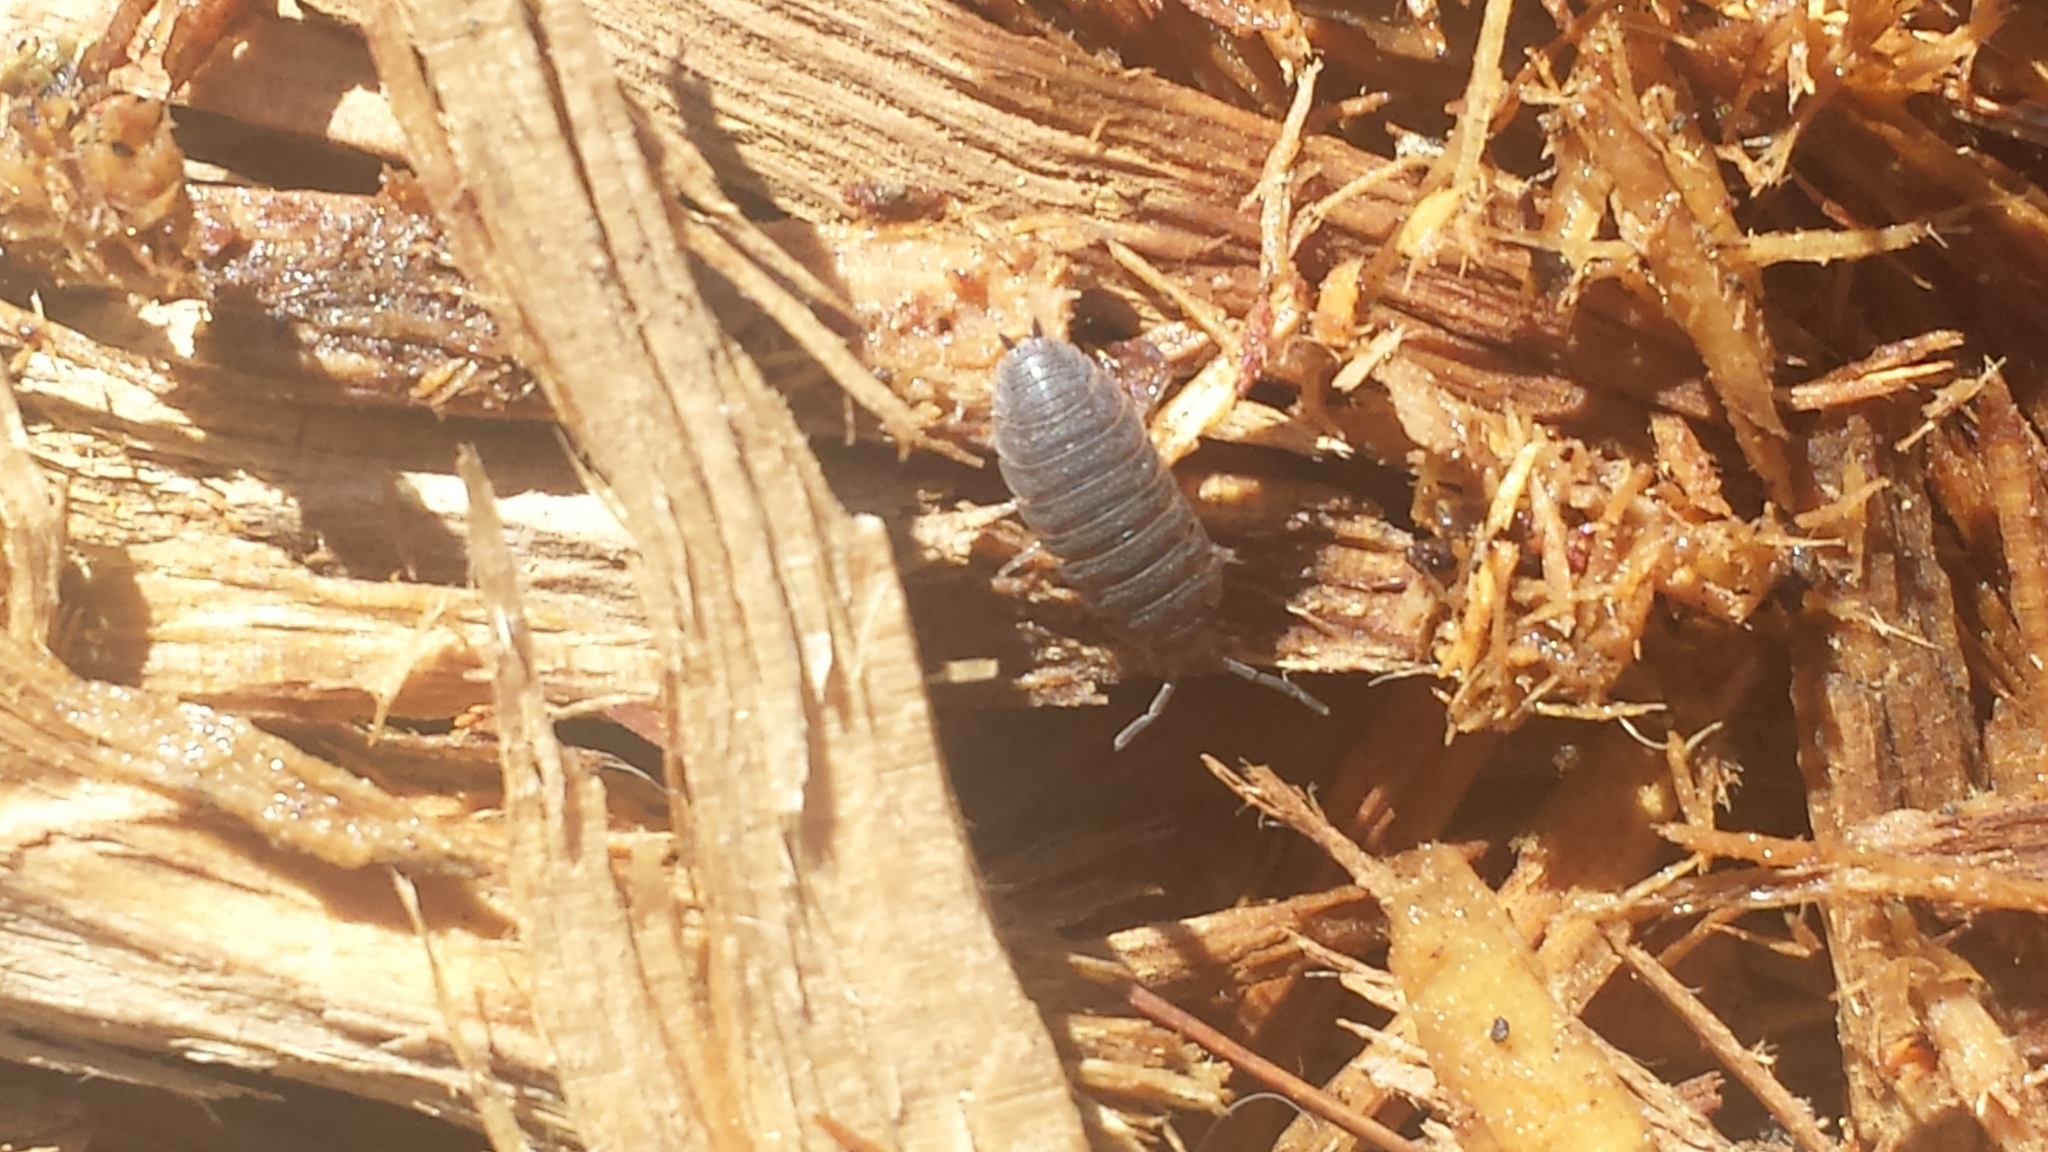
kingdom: Animalia
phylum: Arthropoda
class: Malacostraca
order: Isopoda
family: Porcellionidae
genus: Porcellio
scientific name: Porcellio scaber
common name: Common rough woodlouse
